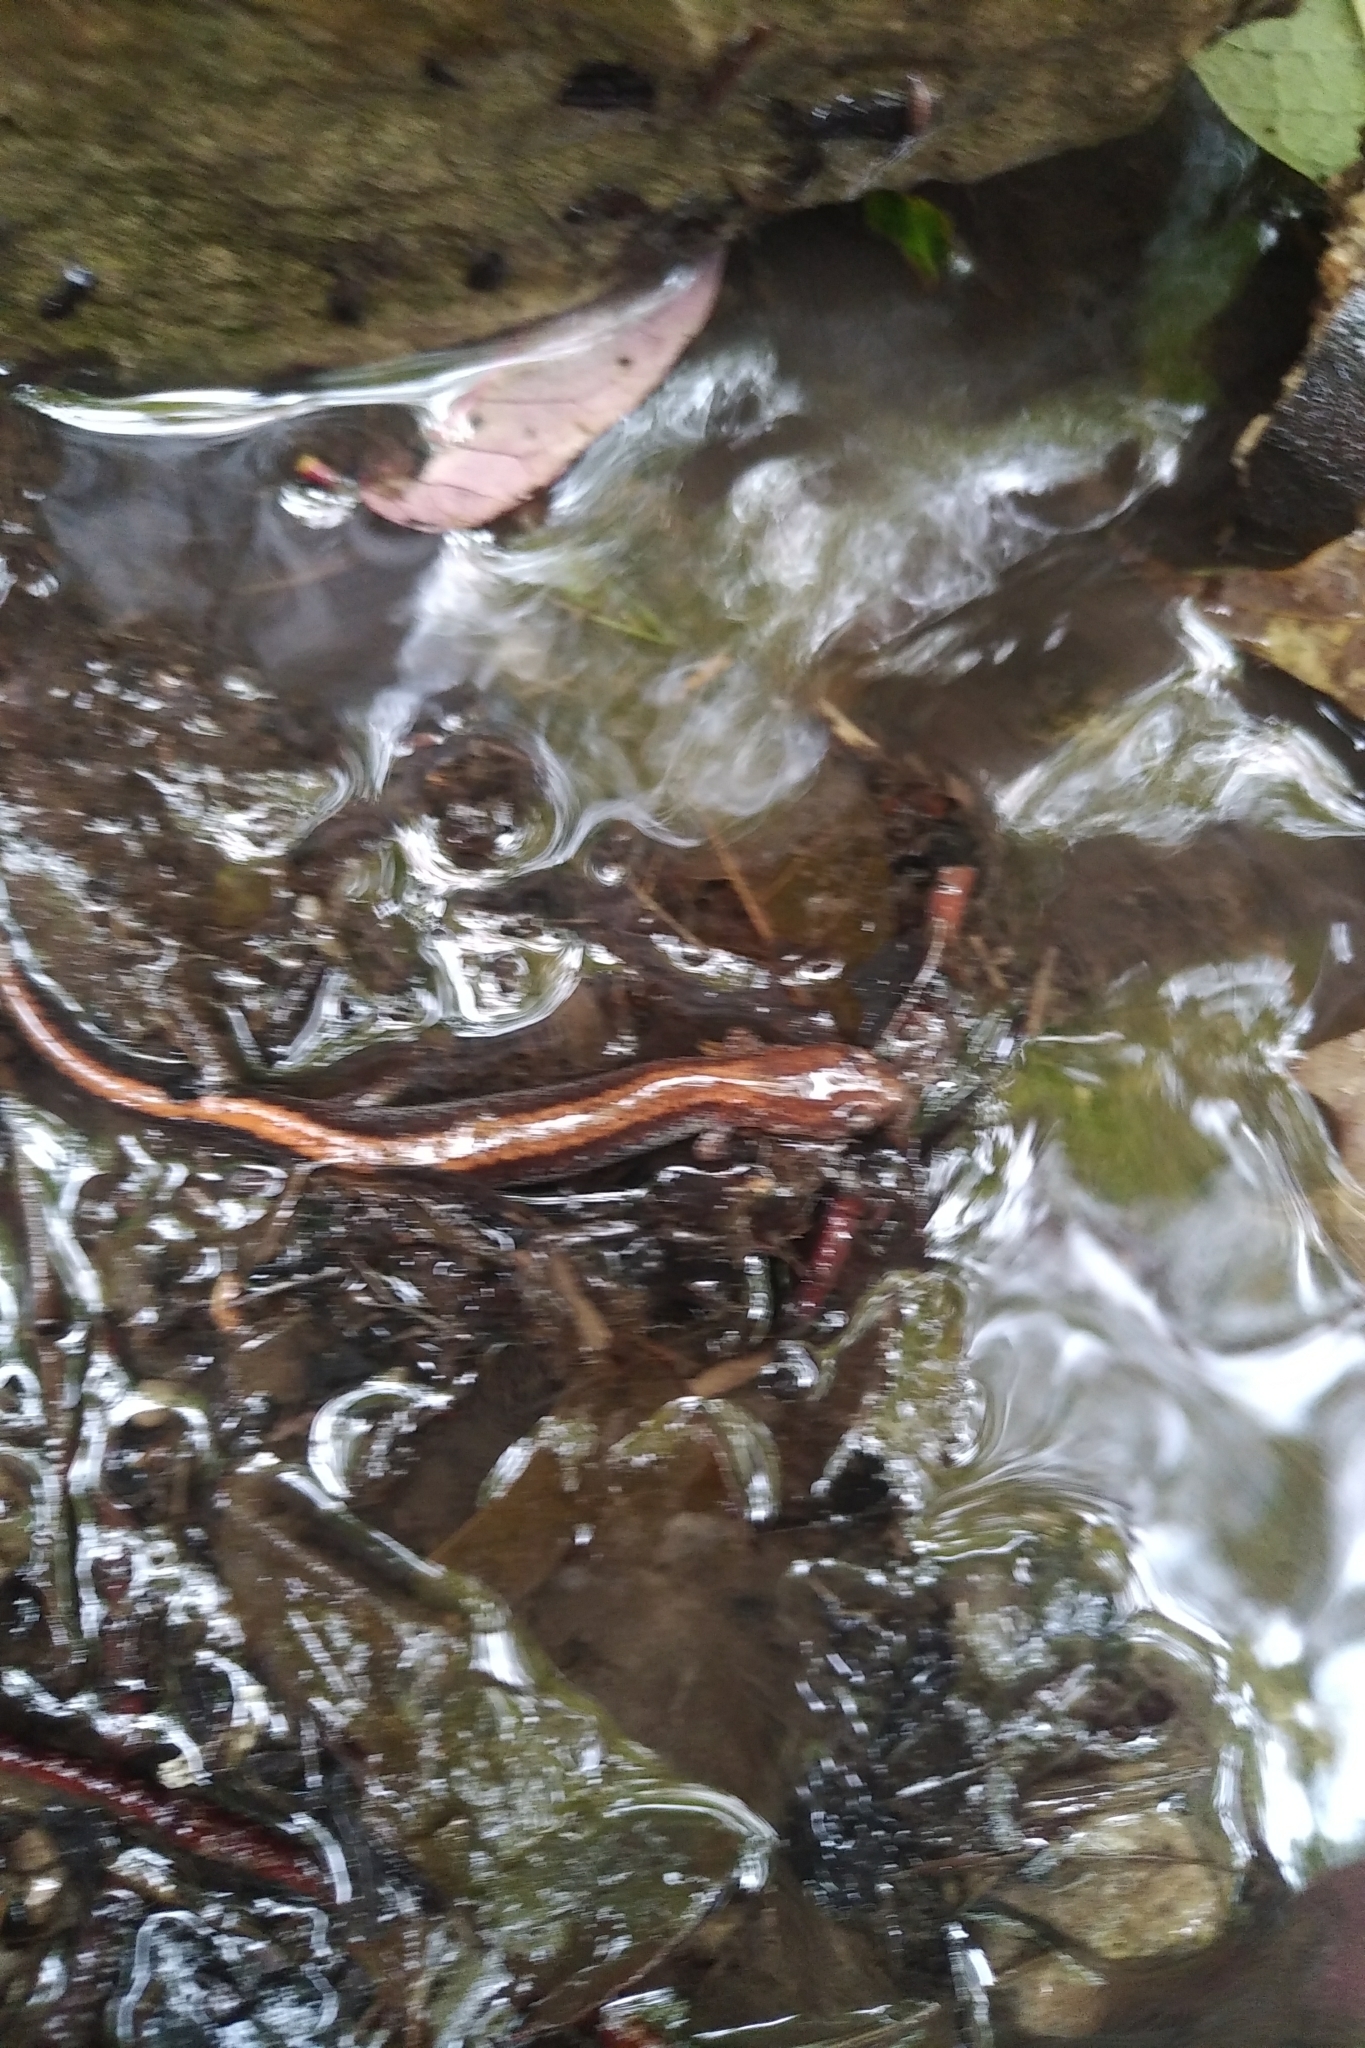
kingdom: Animalia
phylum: Chordata
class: Amphibia
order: Caudata
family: Plethodontidae
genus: Plethodon
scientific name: Plethodon cinereus
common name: Redback salamander
